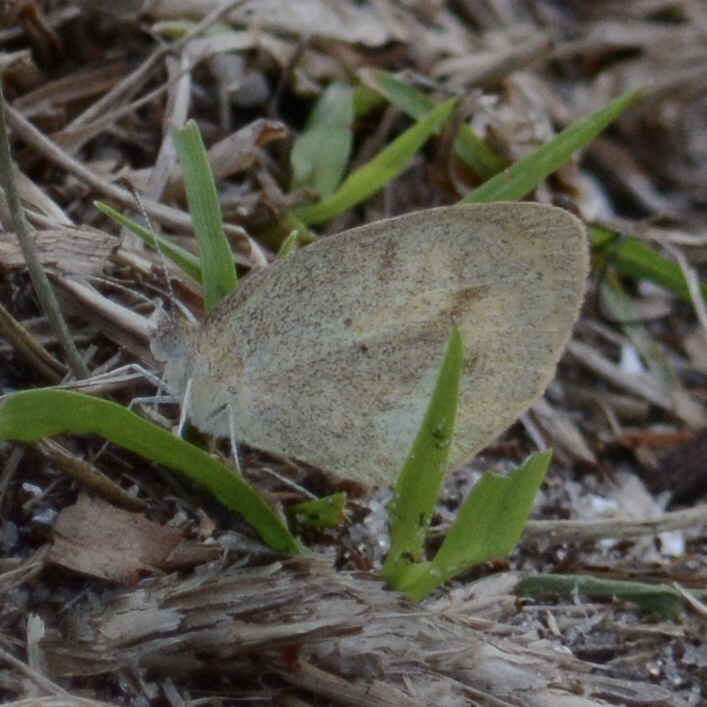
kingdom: Animalia
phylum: Arthropoda
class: Insecta
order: Lepidoptera
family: Pieridae
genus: Eurema
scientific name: Eurema daira
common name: Barred sulphur
